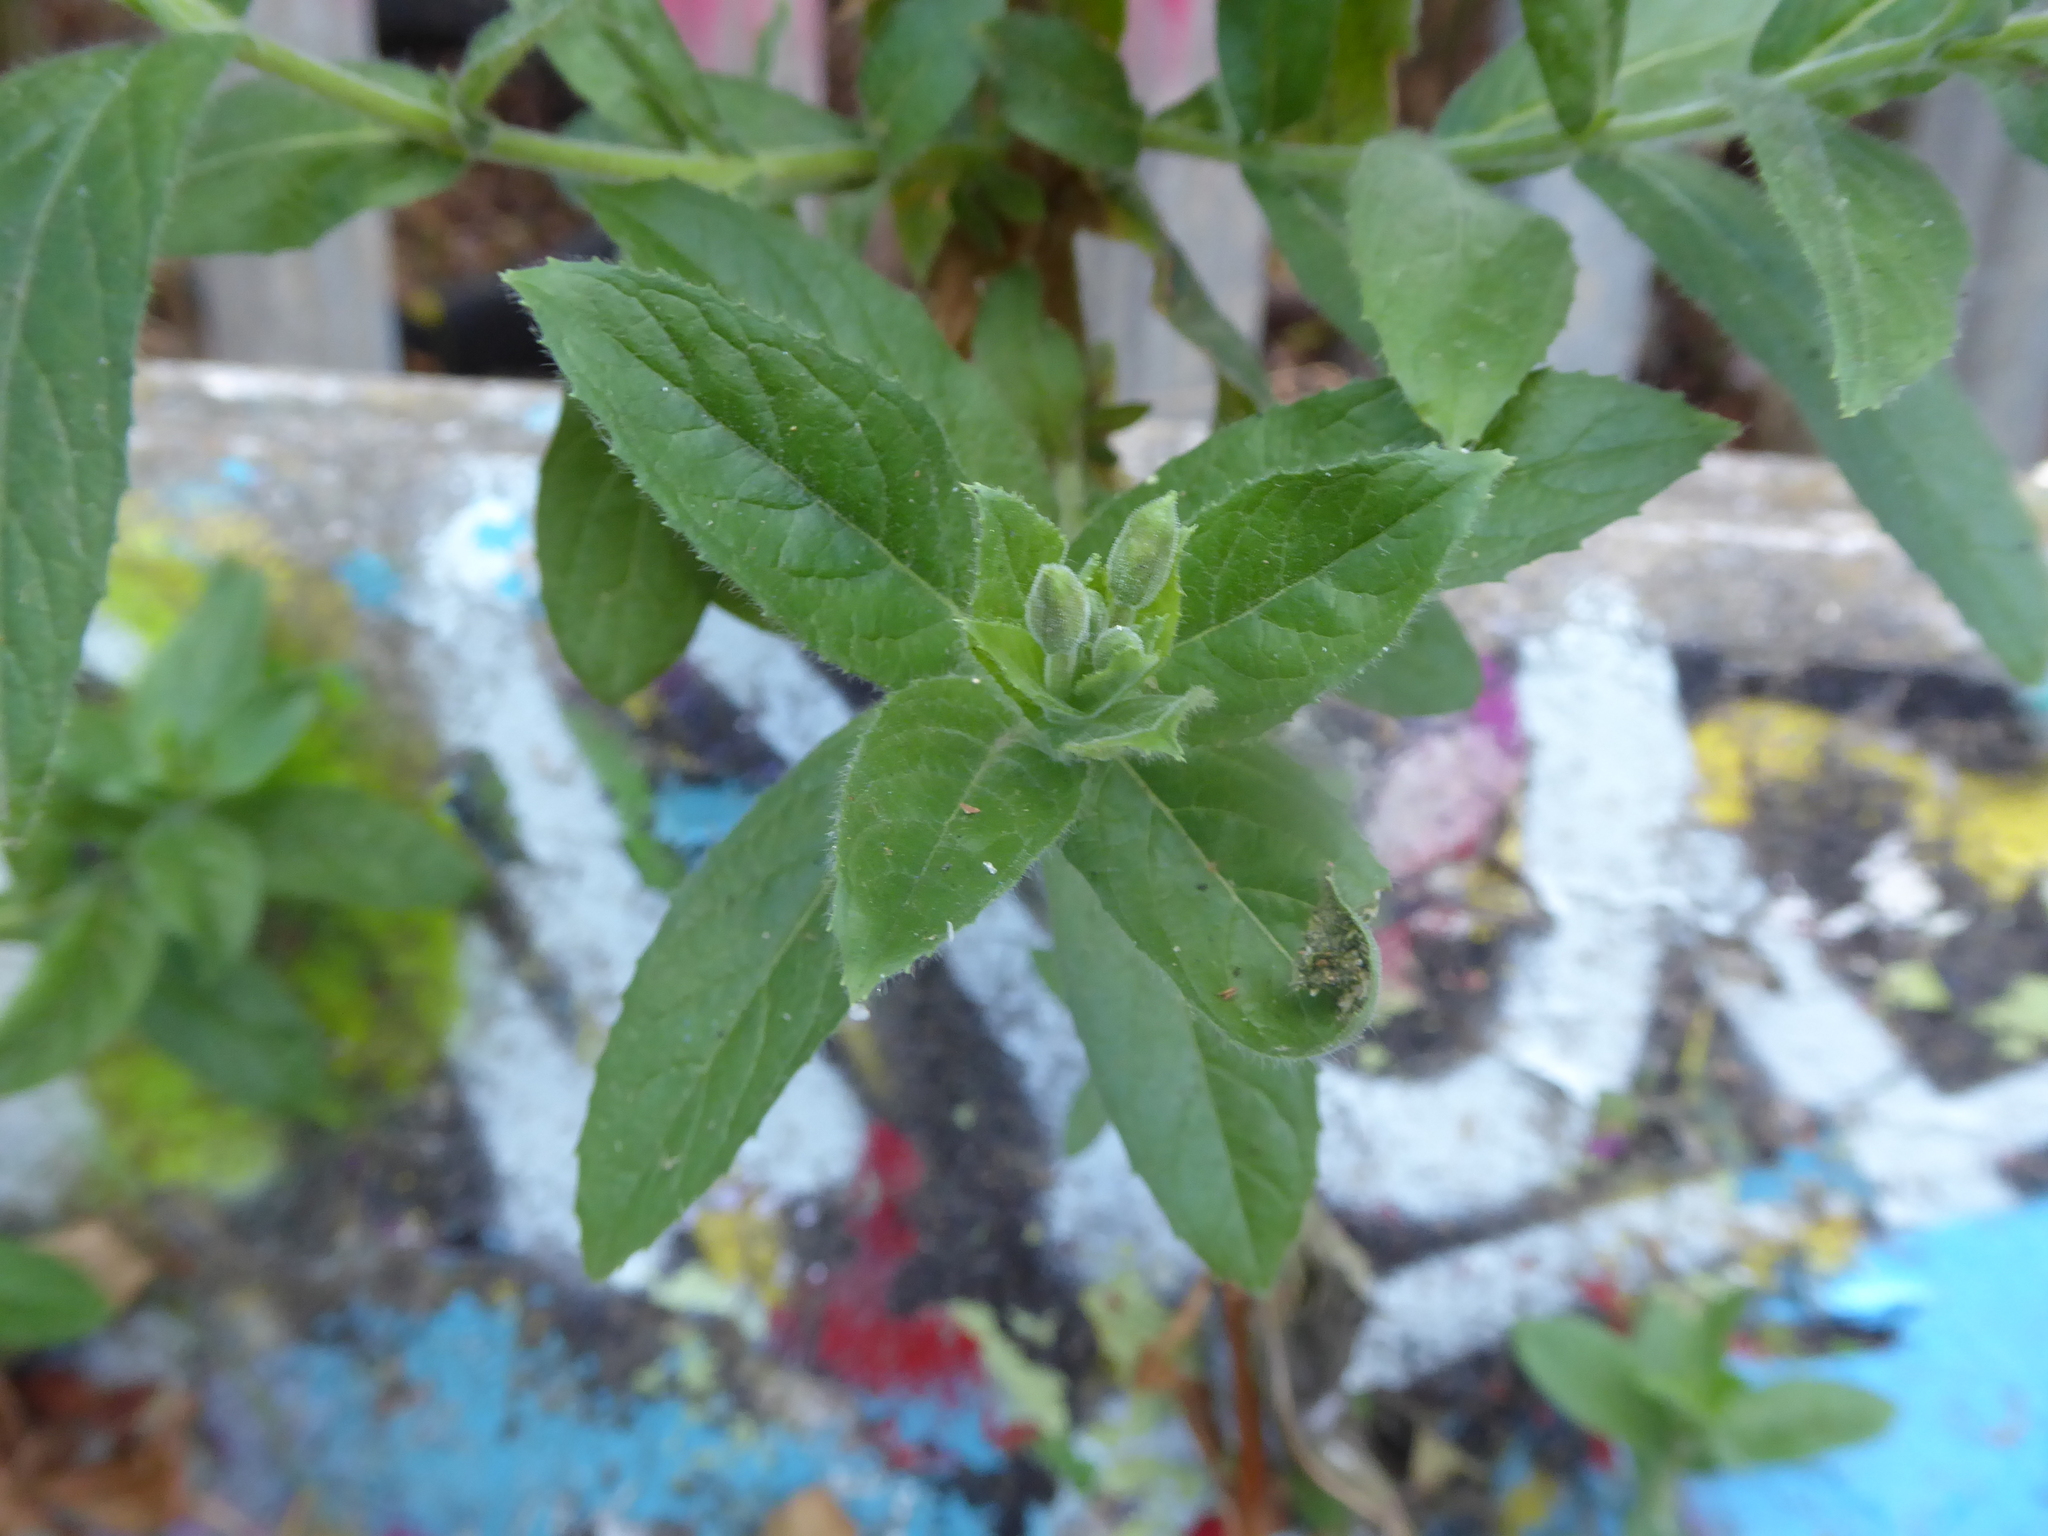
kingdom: Plantae
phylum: Tracheophyta
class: Magnoliopsida
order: Myrtales
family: Onagraceae
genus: Epilobium
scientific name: Epilobium hirsutum
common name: Great willowherb
